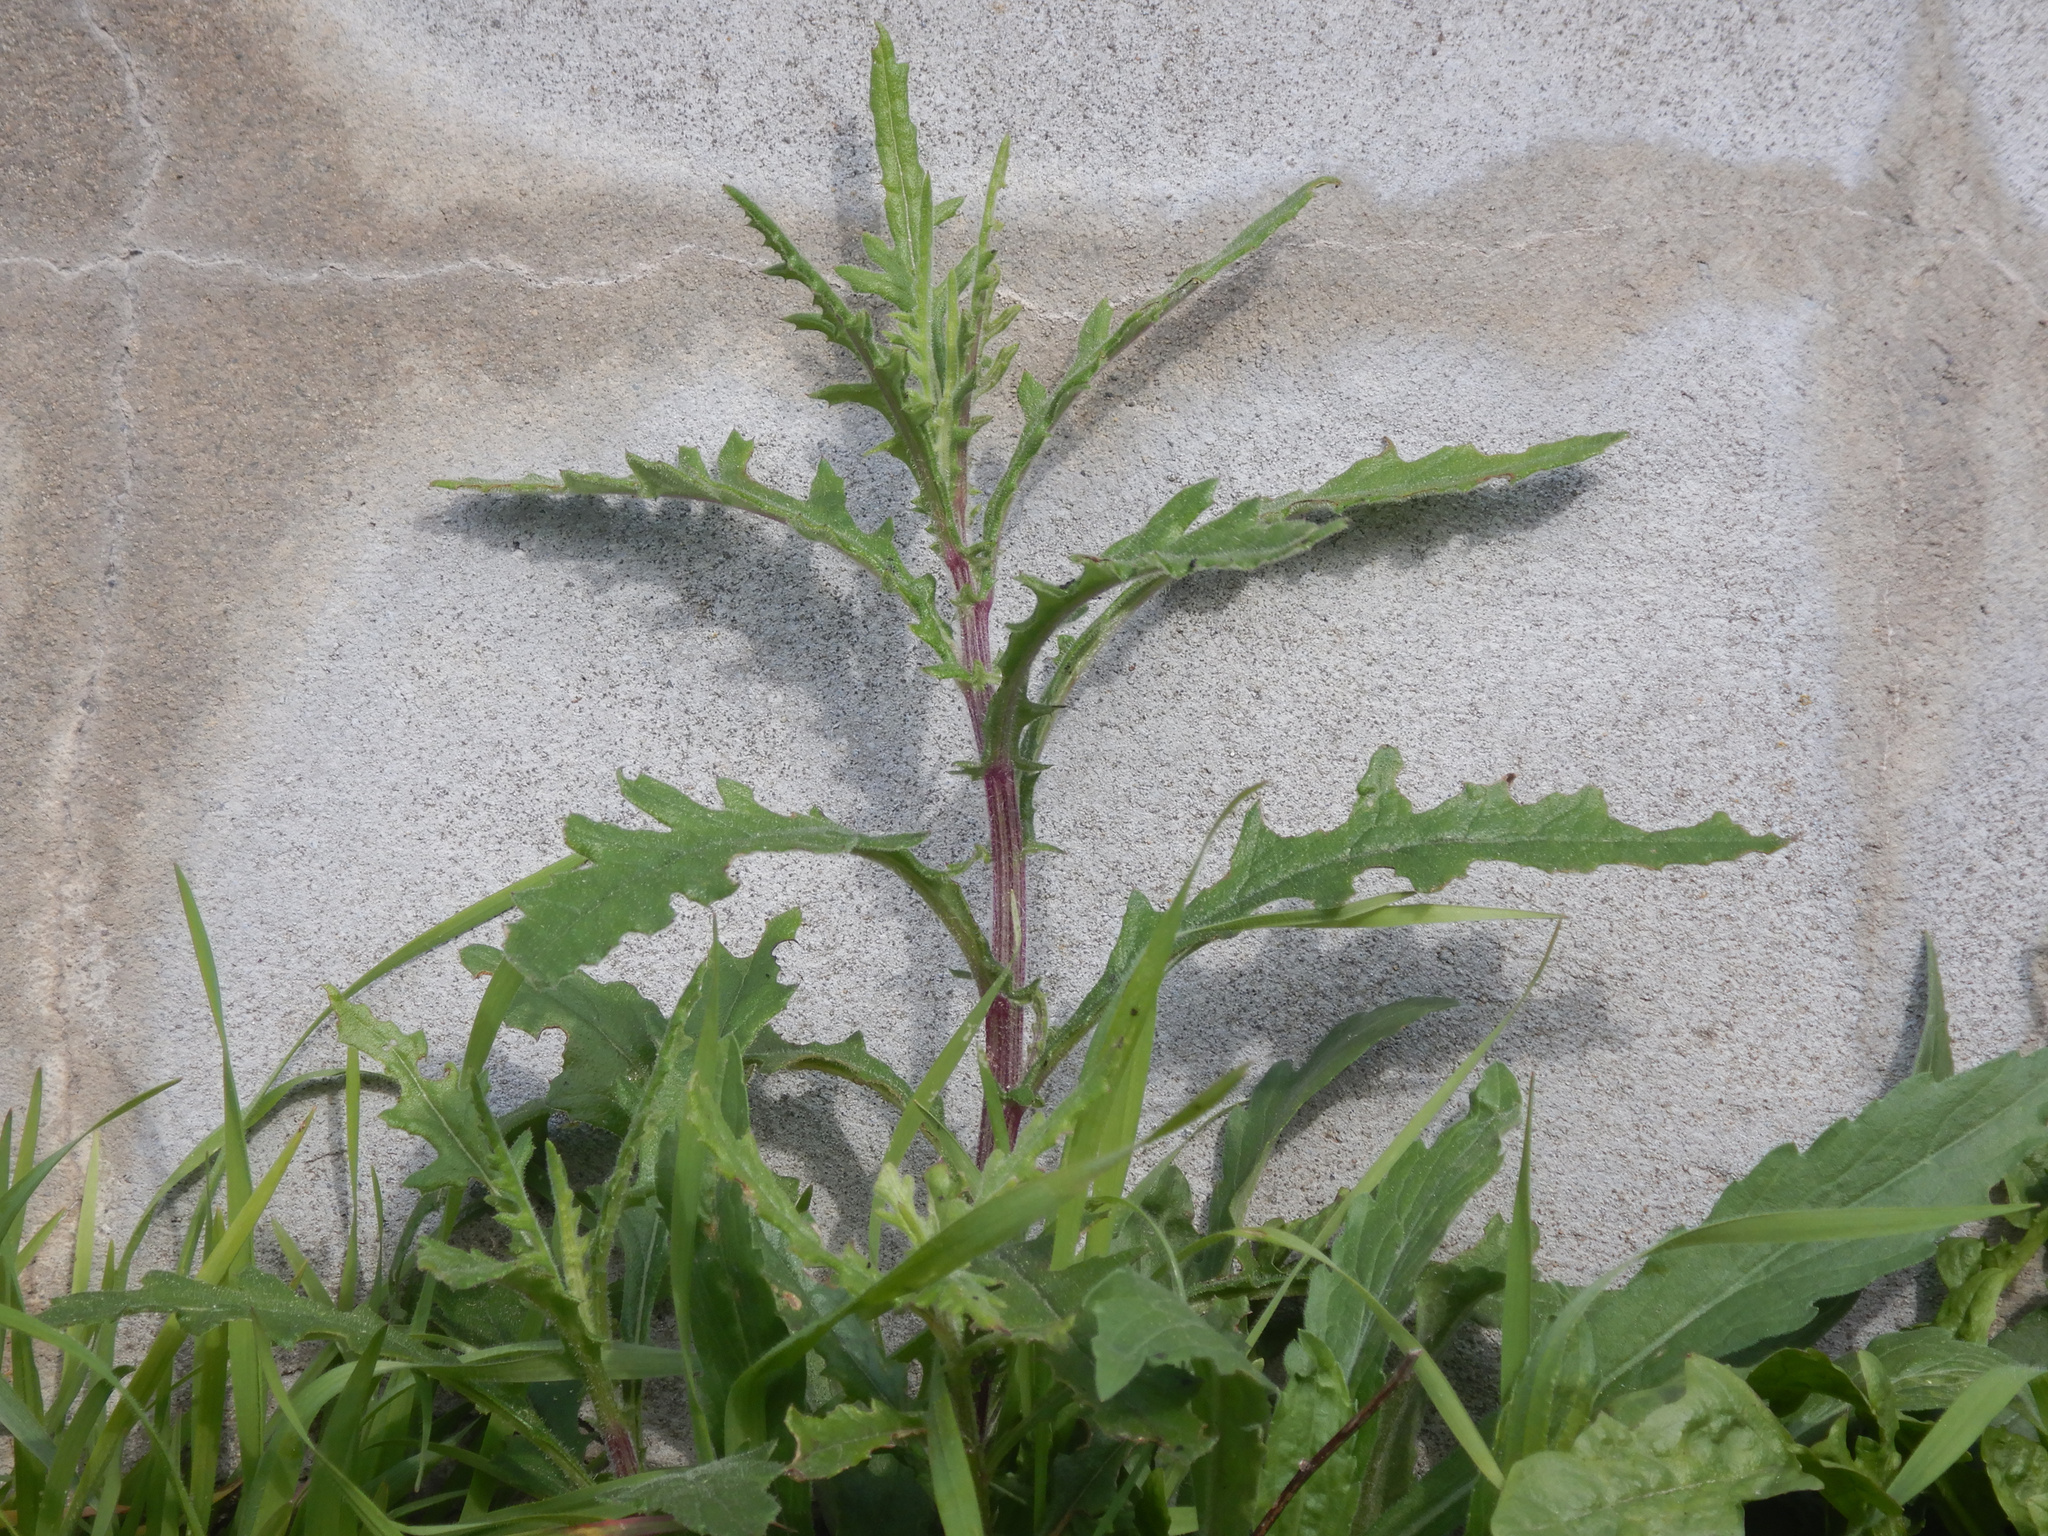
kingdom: Plantae
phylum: Tracheophyta
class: Magnoliopsida
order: Asterales
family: Asteraceae
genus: Senecio
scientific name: Senecio hispidulus
